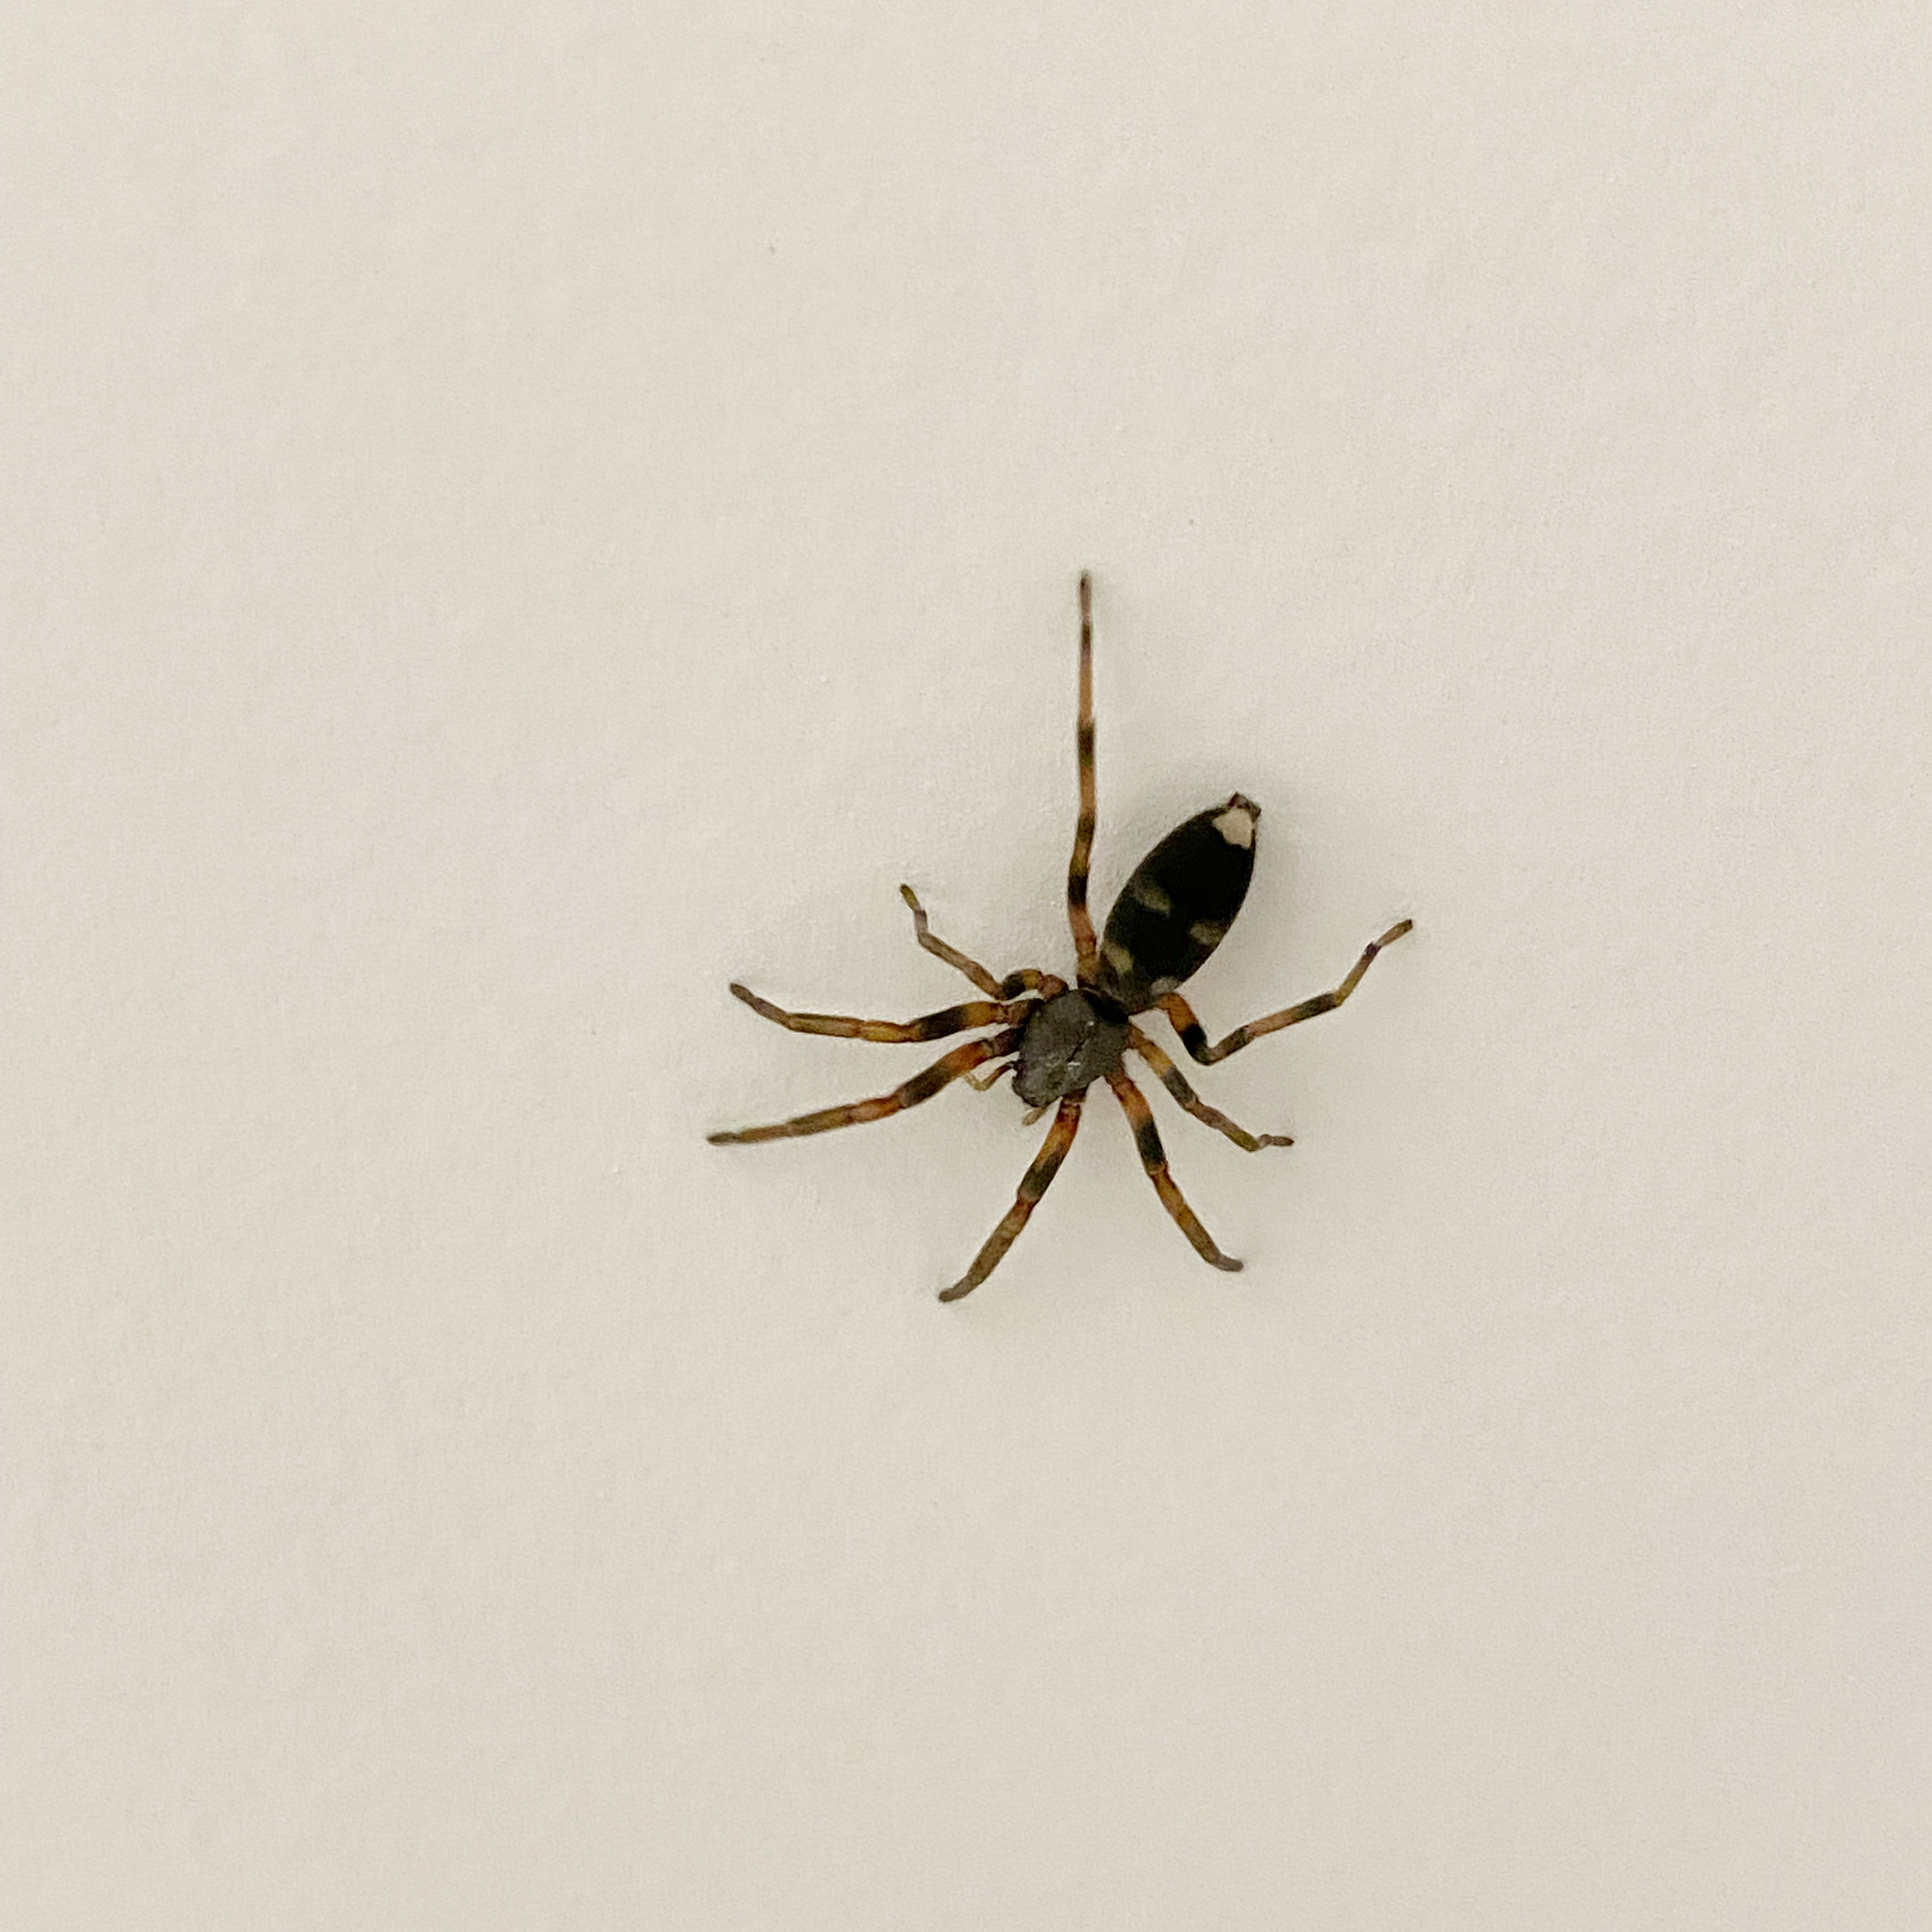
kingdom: Animalia
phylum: Arthropoda
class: Arachnida
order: Araneae
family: Lamponidae
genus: Lampona
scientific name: Lampona cylindrata
